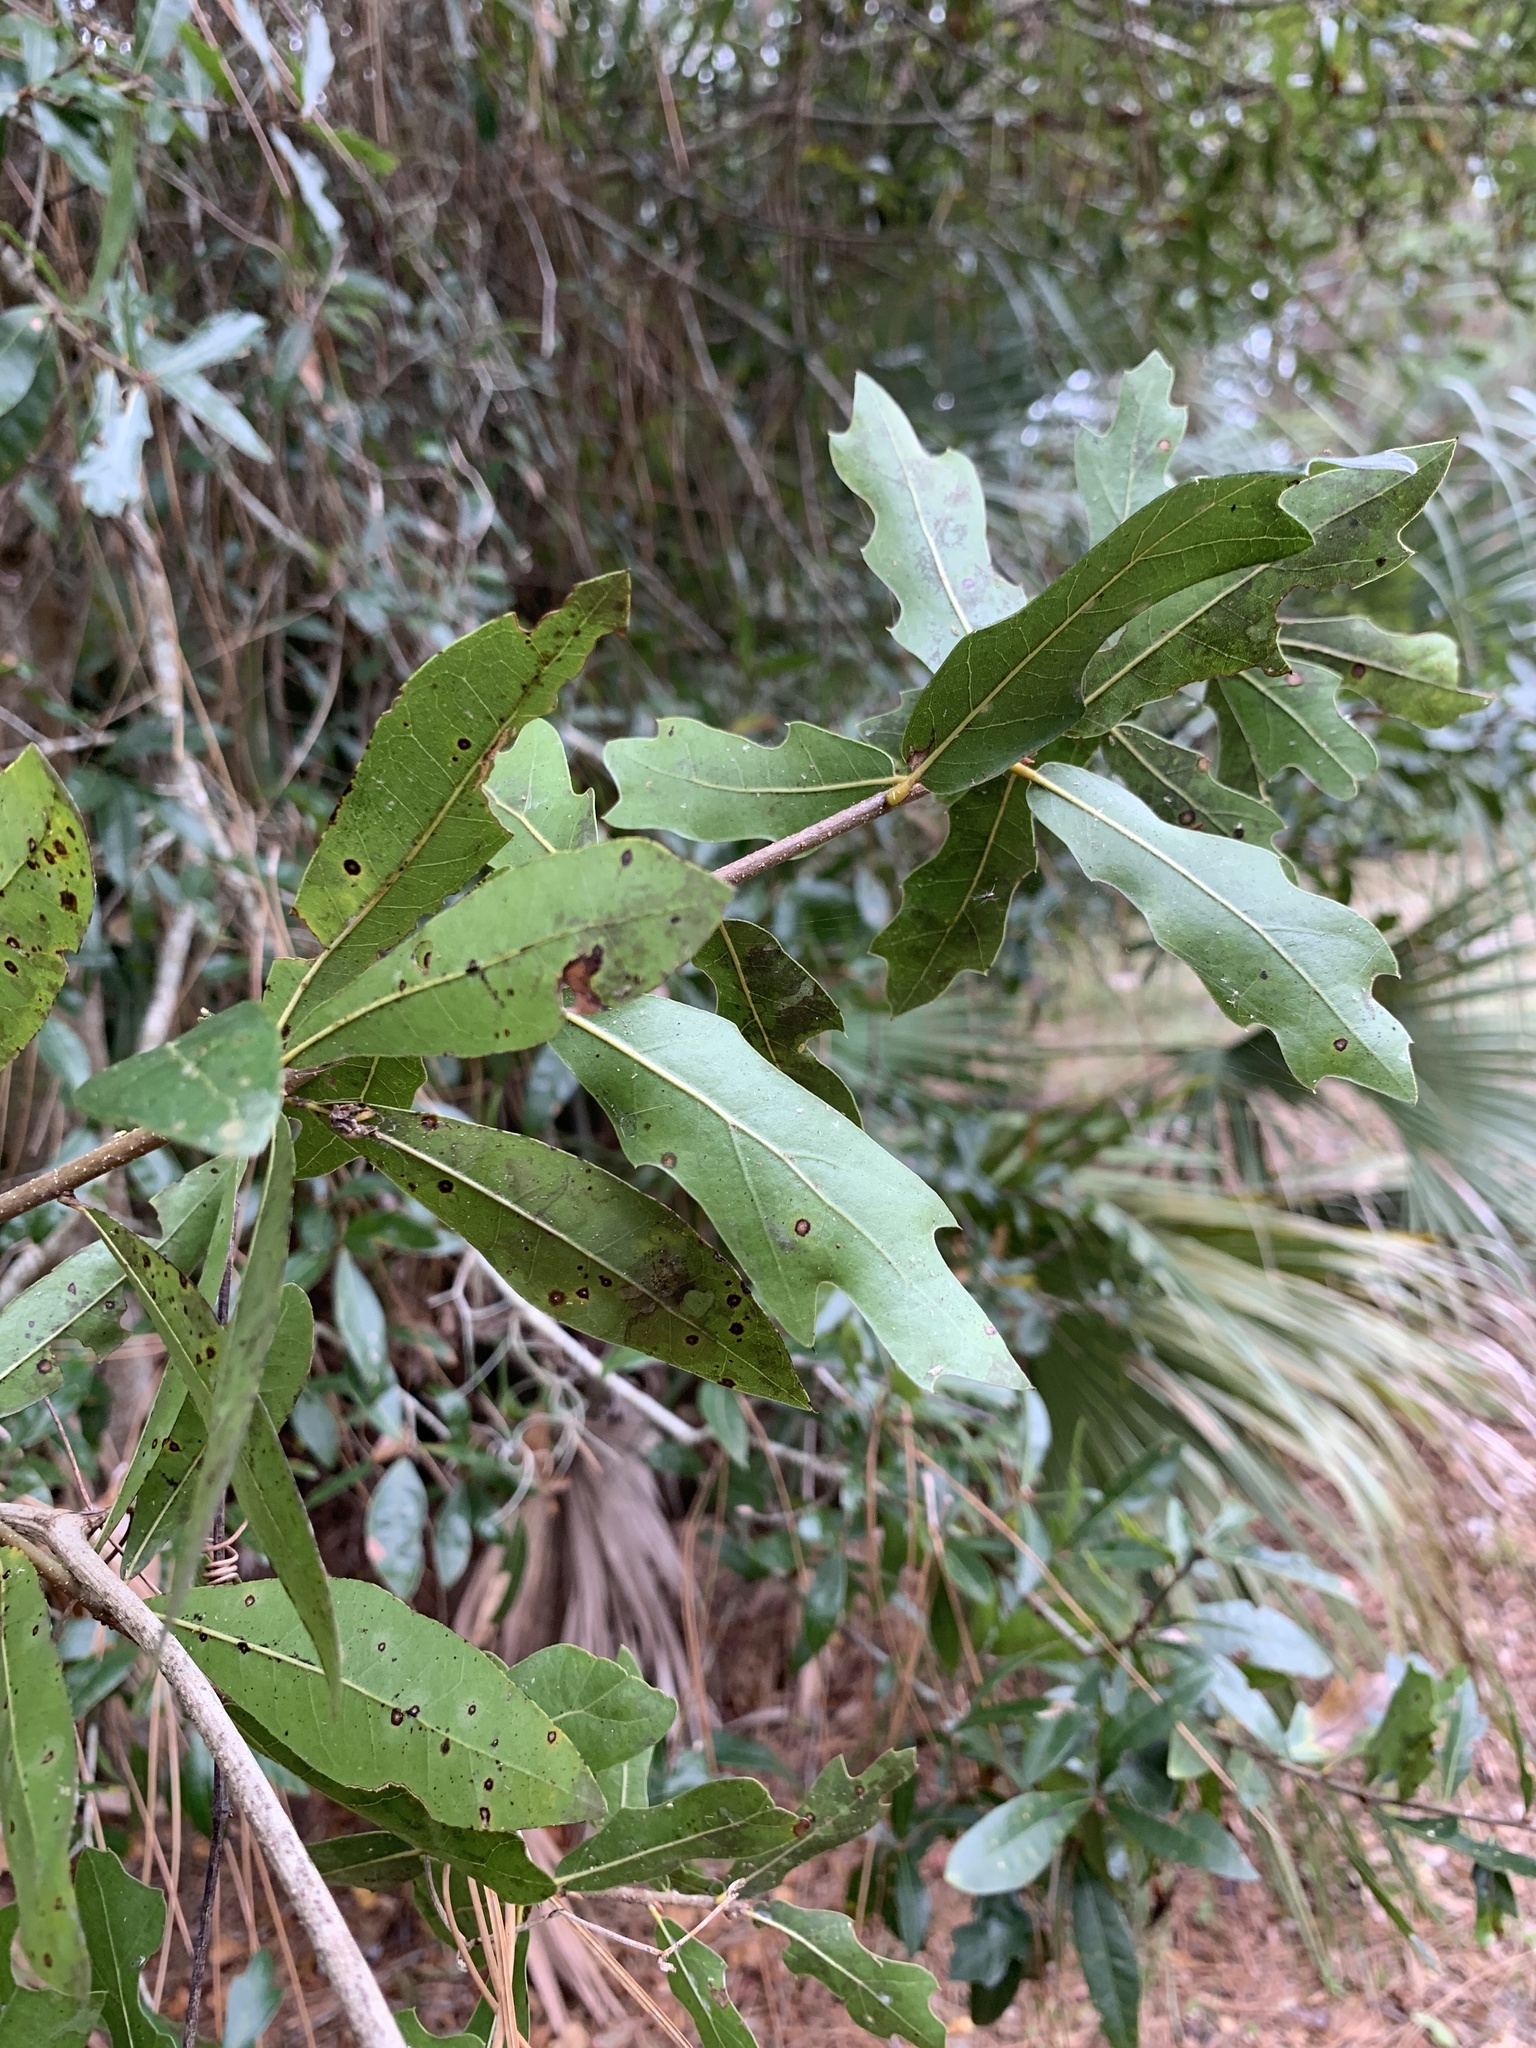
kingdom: Plantae
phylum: Tracheophyta
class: Magnoliopsida
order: Fagales
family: Fagaceae
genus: Quercus
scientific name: Quercus laurifolia
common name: Swamp laurel oak
